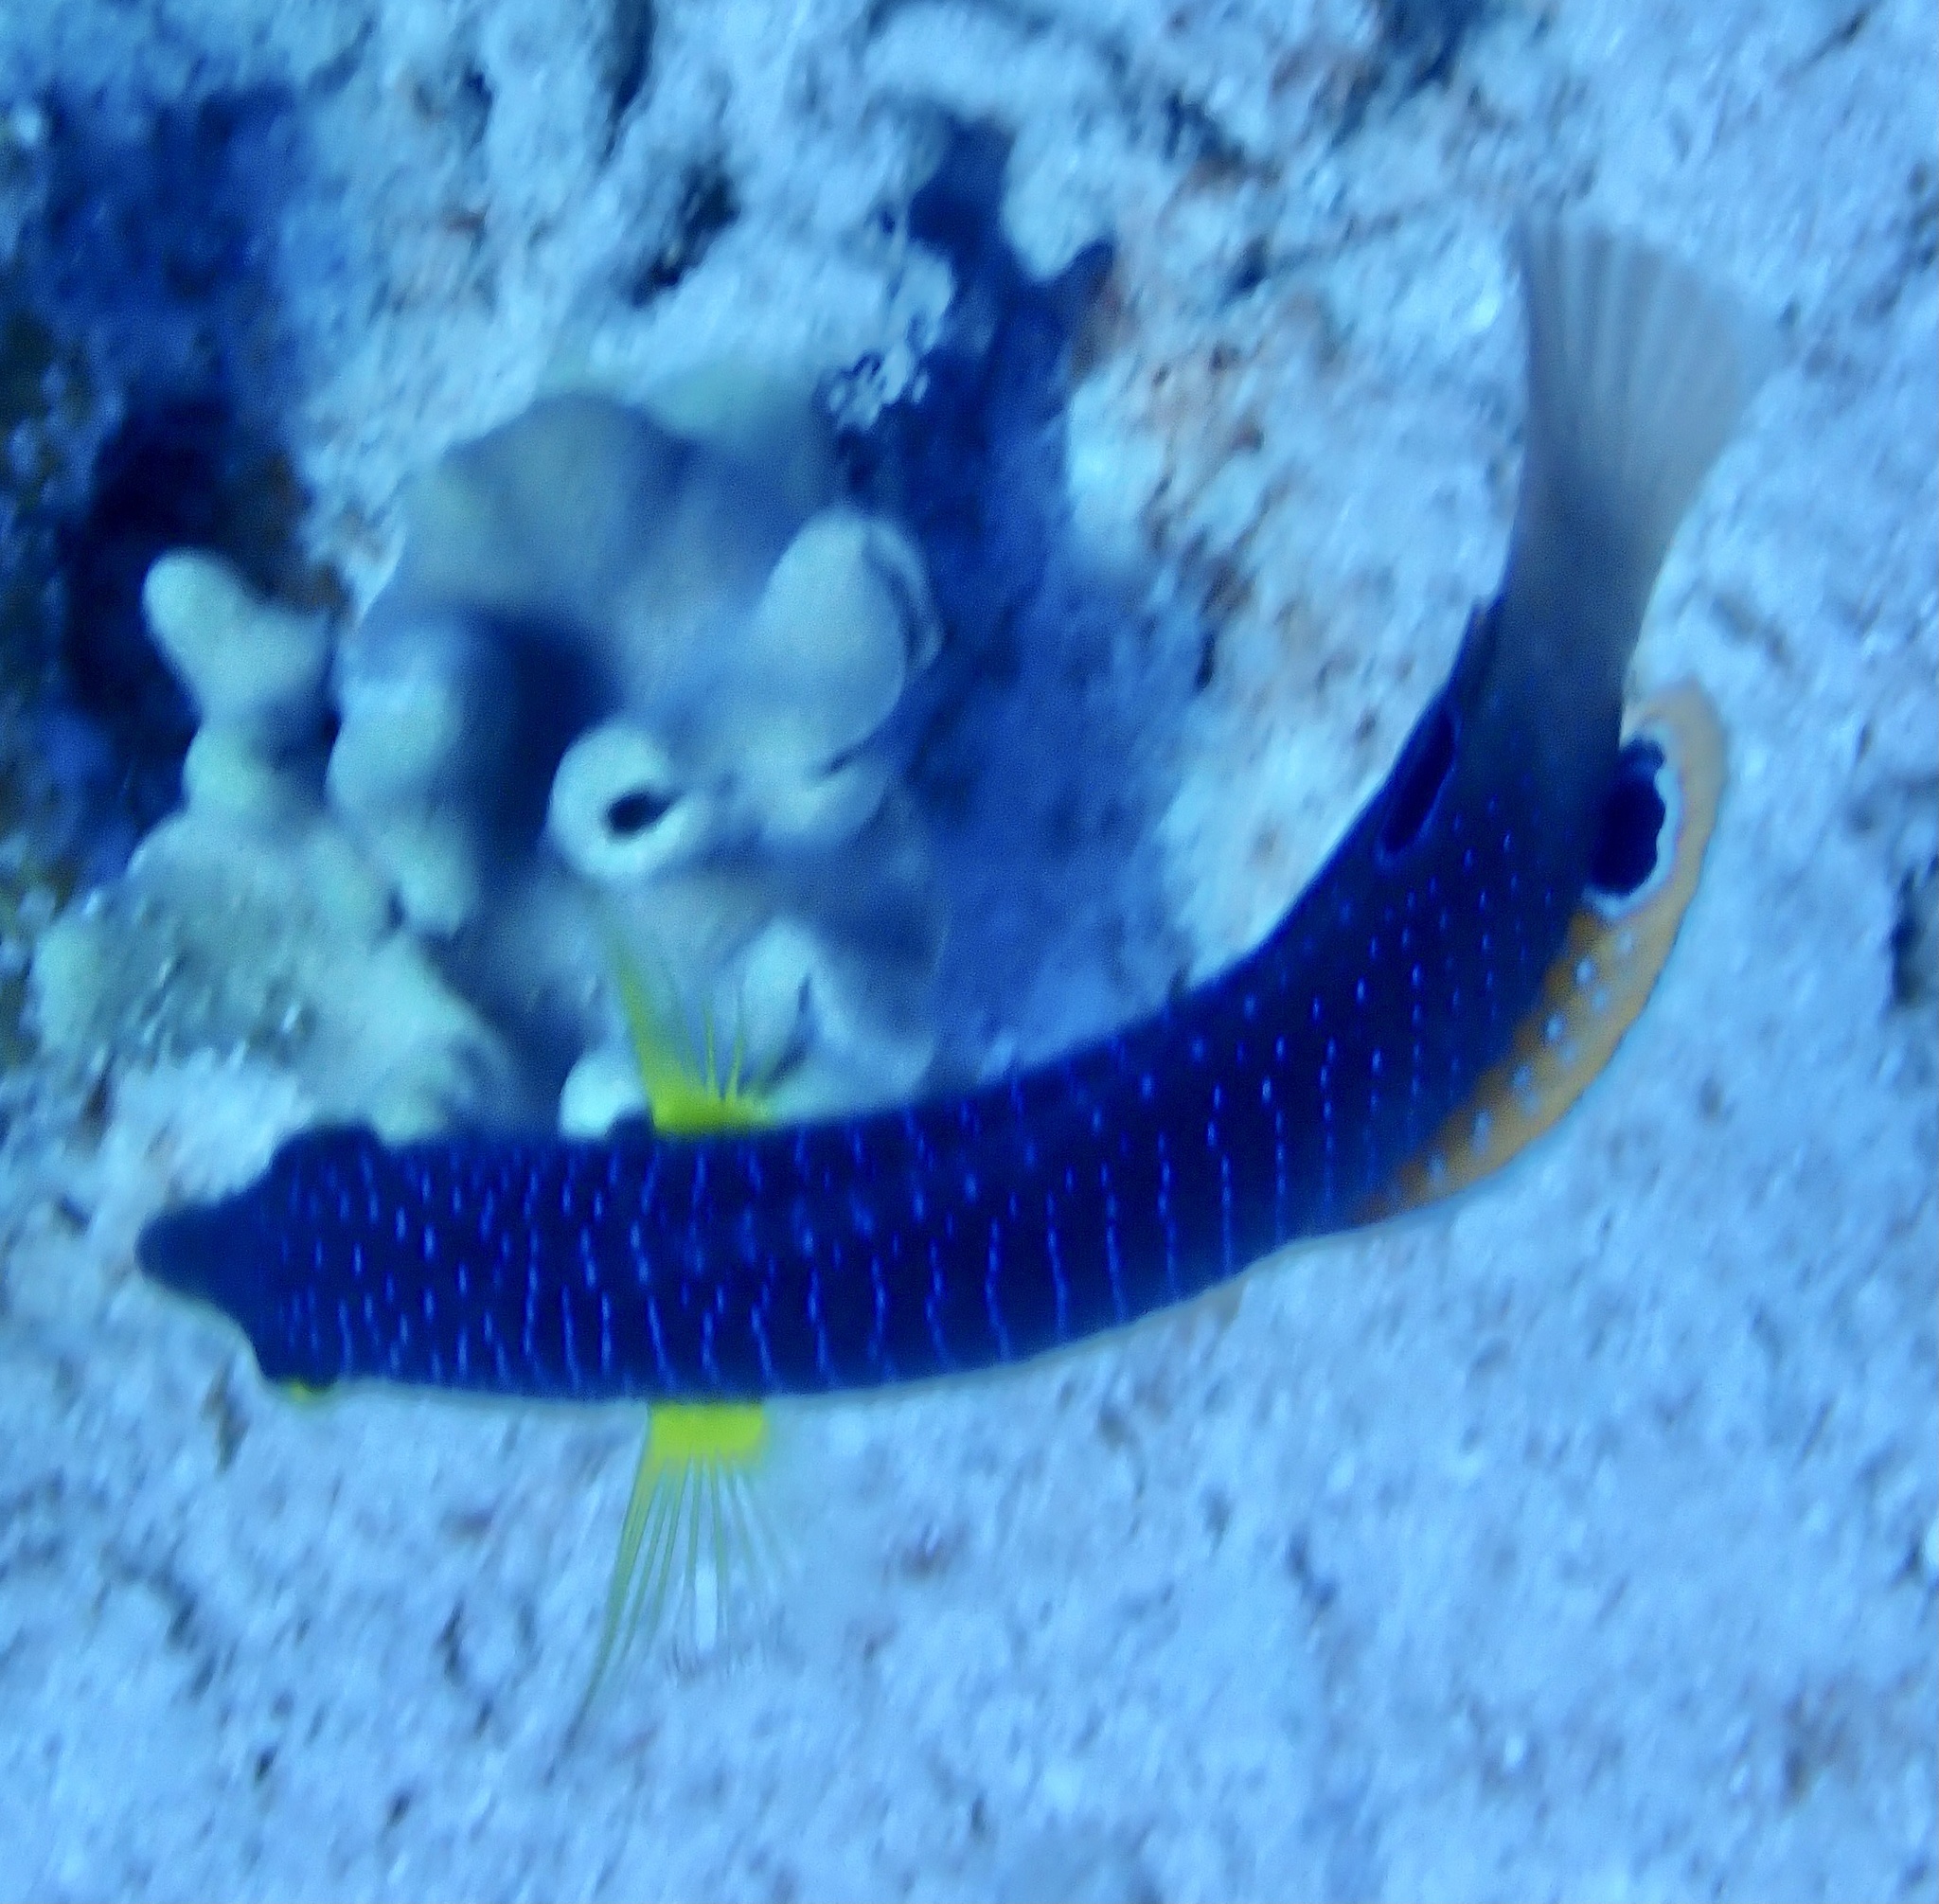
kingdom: Animalia
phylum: Chordata
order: Perciformes
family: Labridae
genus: Anampses
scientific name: Anampses twistii
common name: Yellowbreasted wrasse
